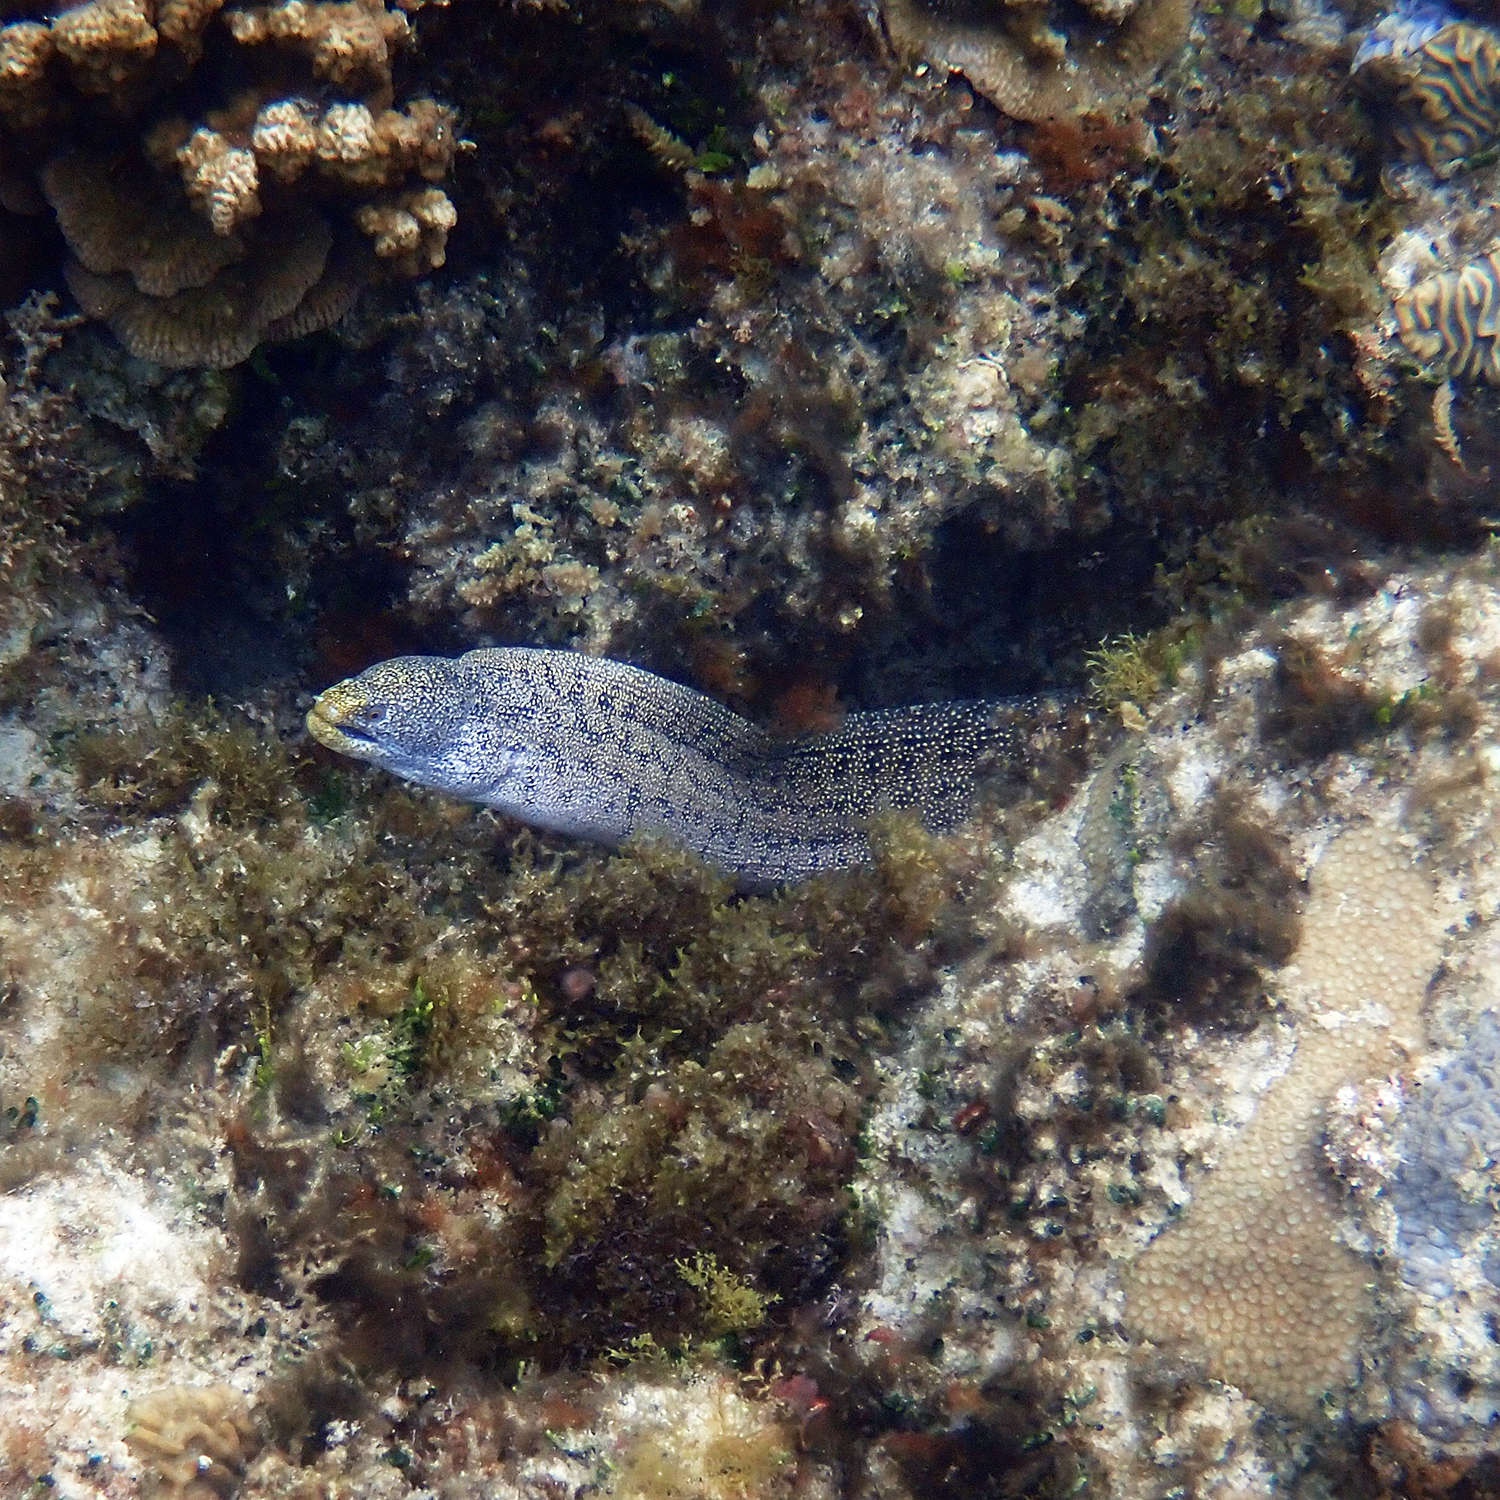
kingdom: Animalia
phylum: Chordata
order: Anguilliformes
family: Muraenidae
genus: Gymnothorax
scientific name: Gymnothorax annasona
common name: Lord howe island moray
